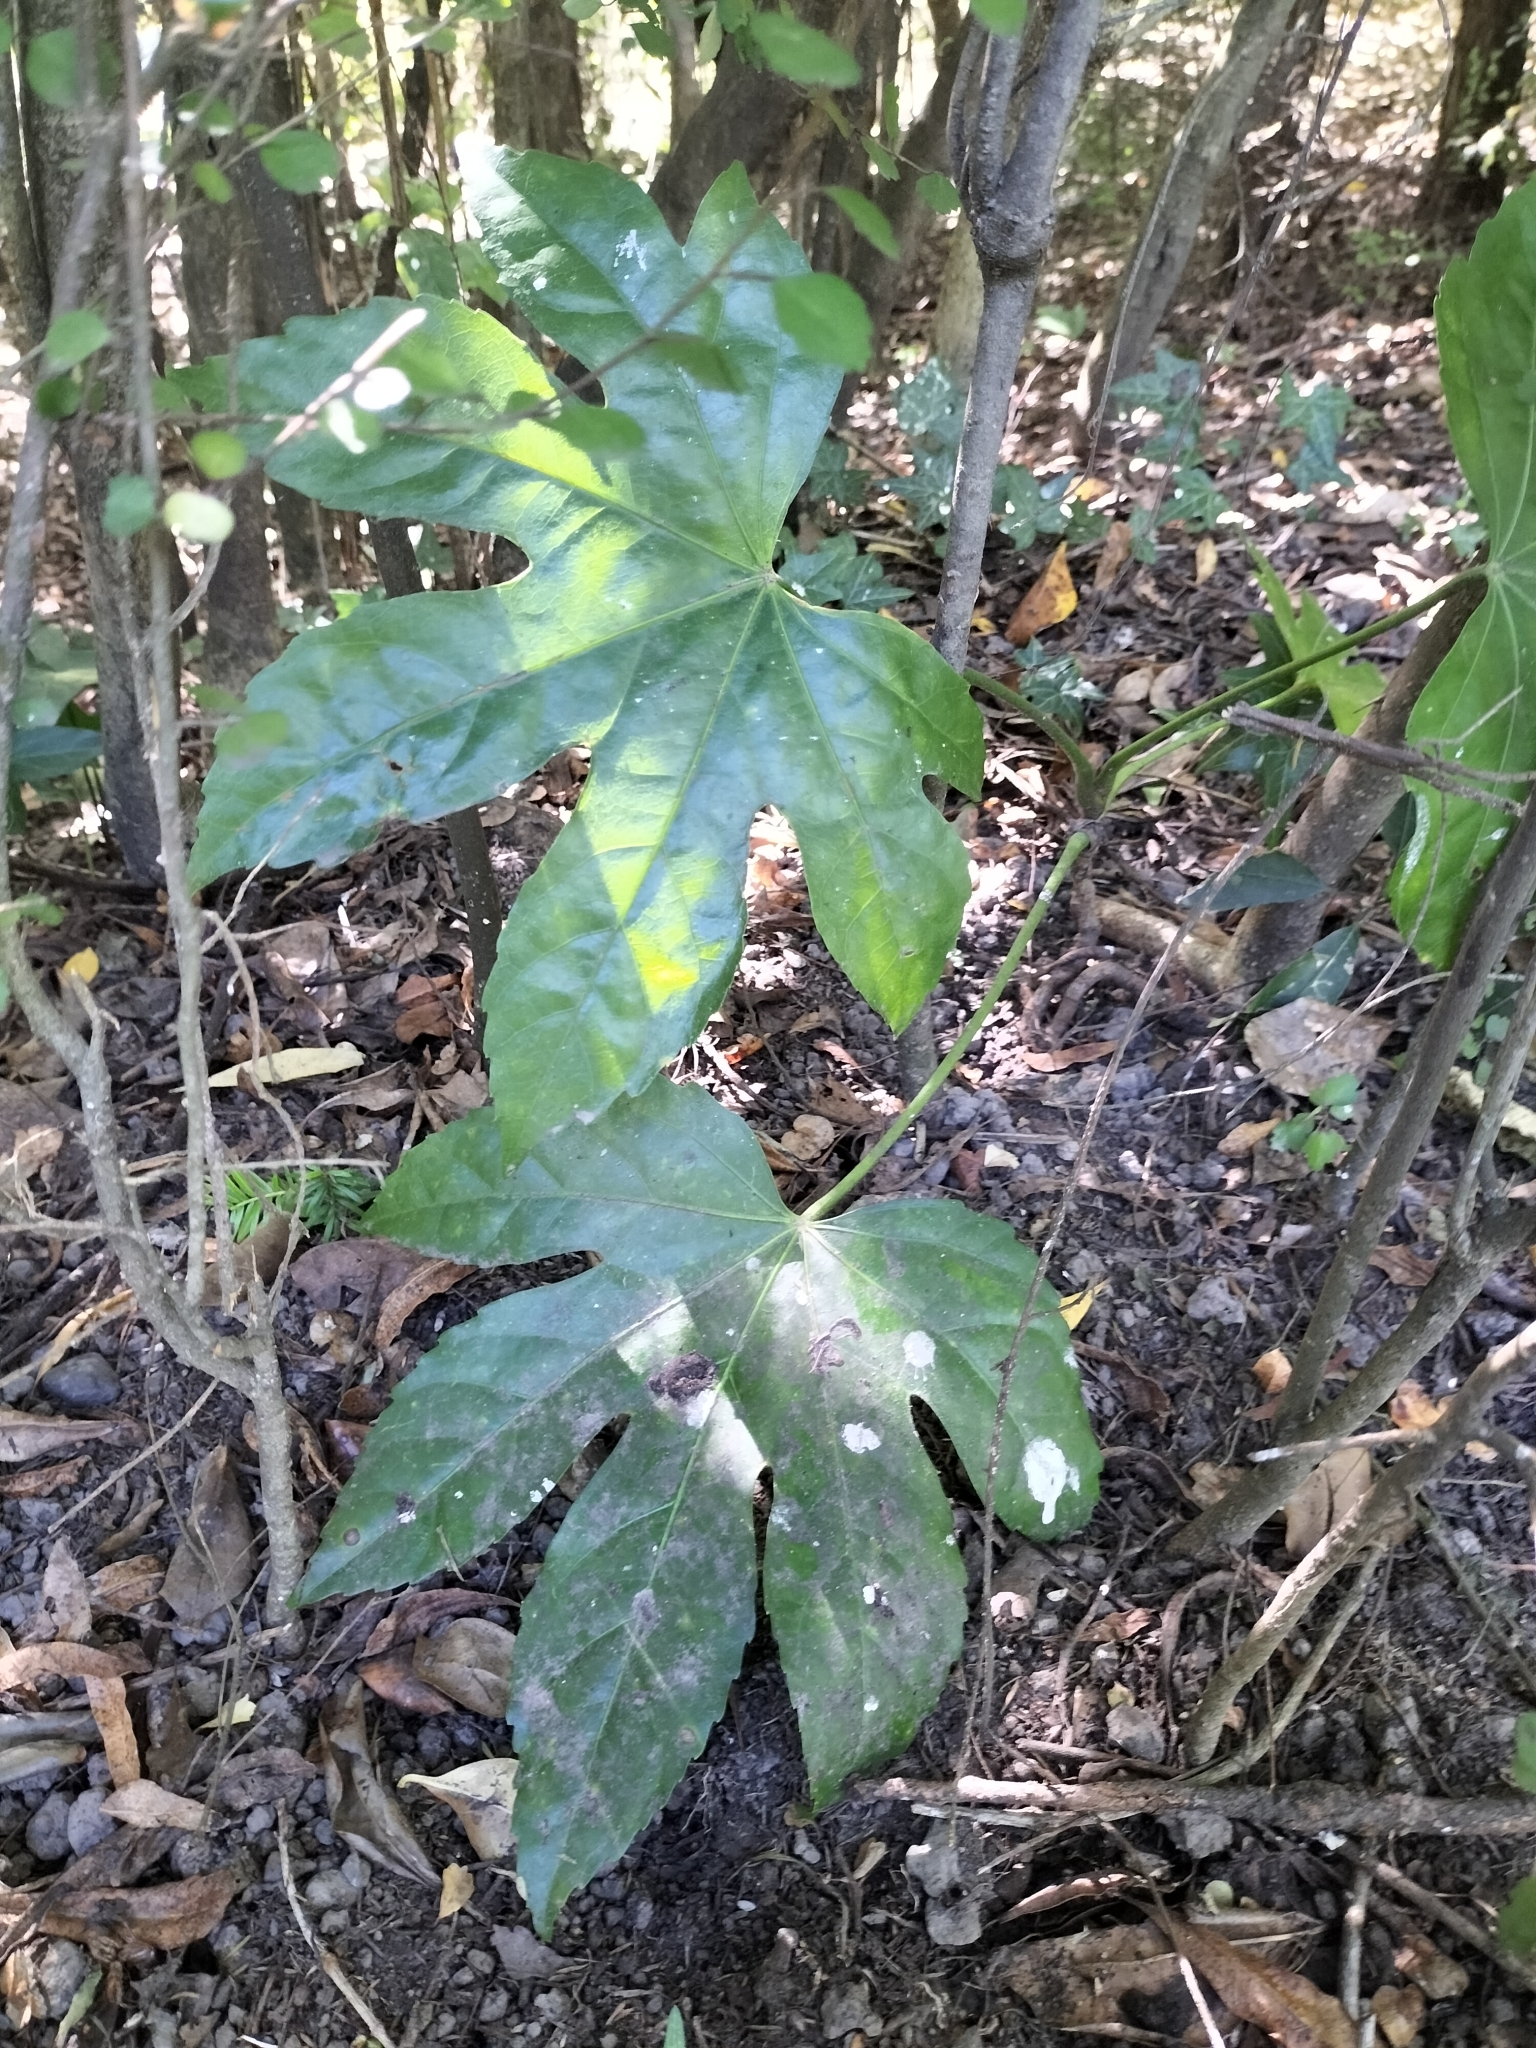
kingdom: Plantae
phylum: Tracheophyta
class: Magnoliopsida
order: Apiales
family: Araliaceae
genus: Fatsia
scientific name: Fatsia japonica
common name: Fatsia
